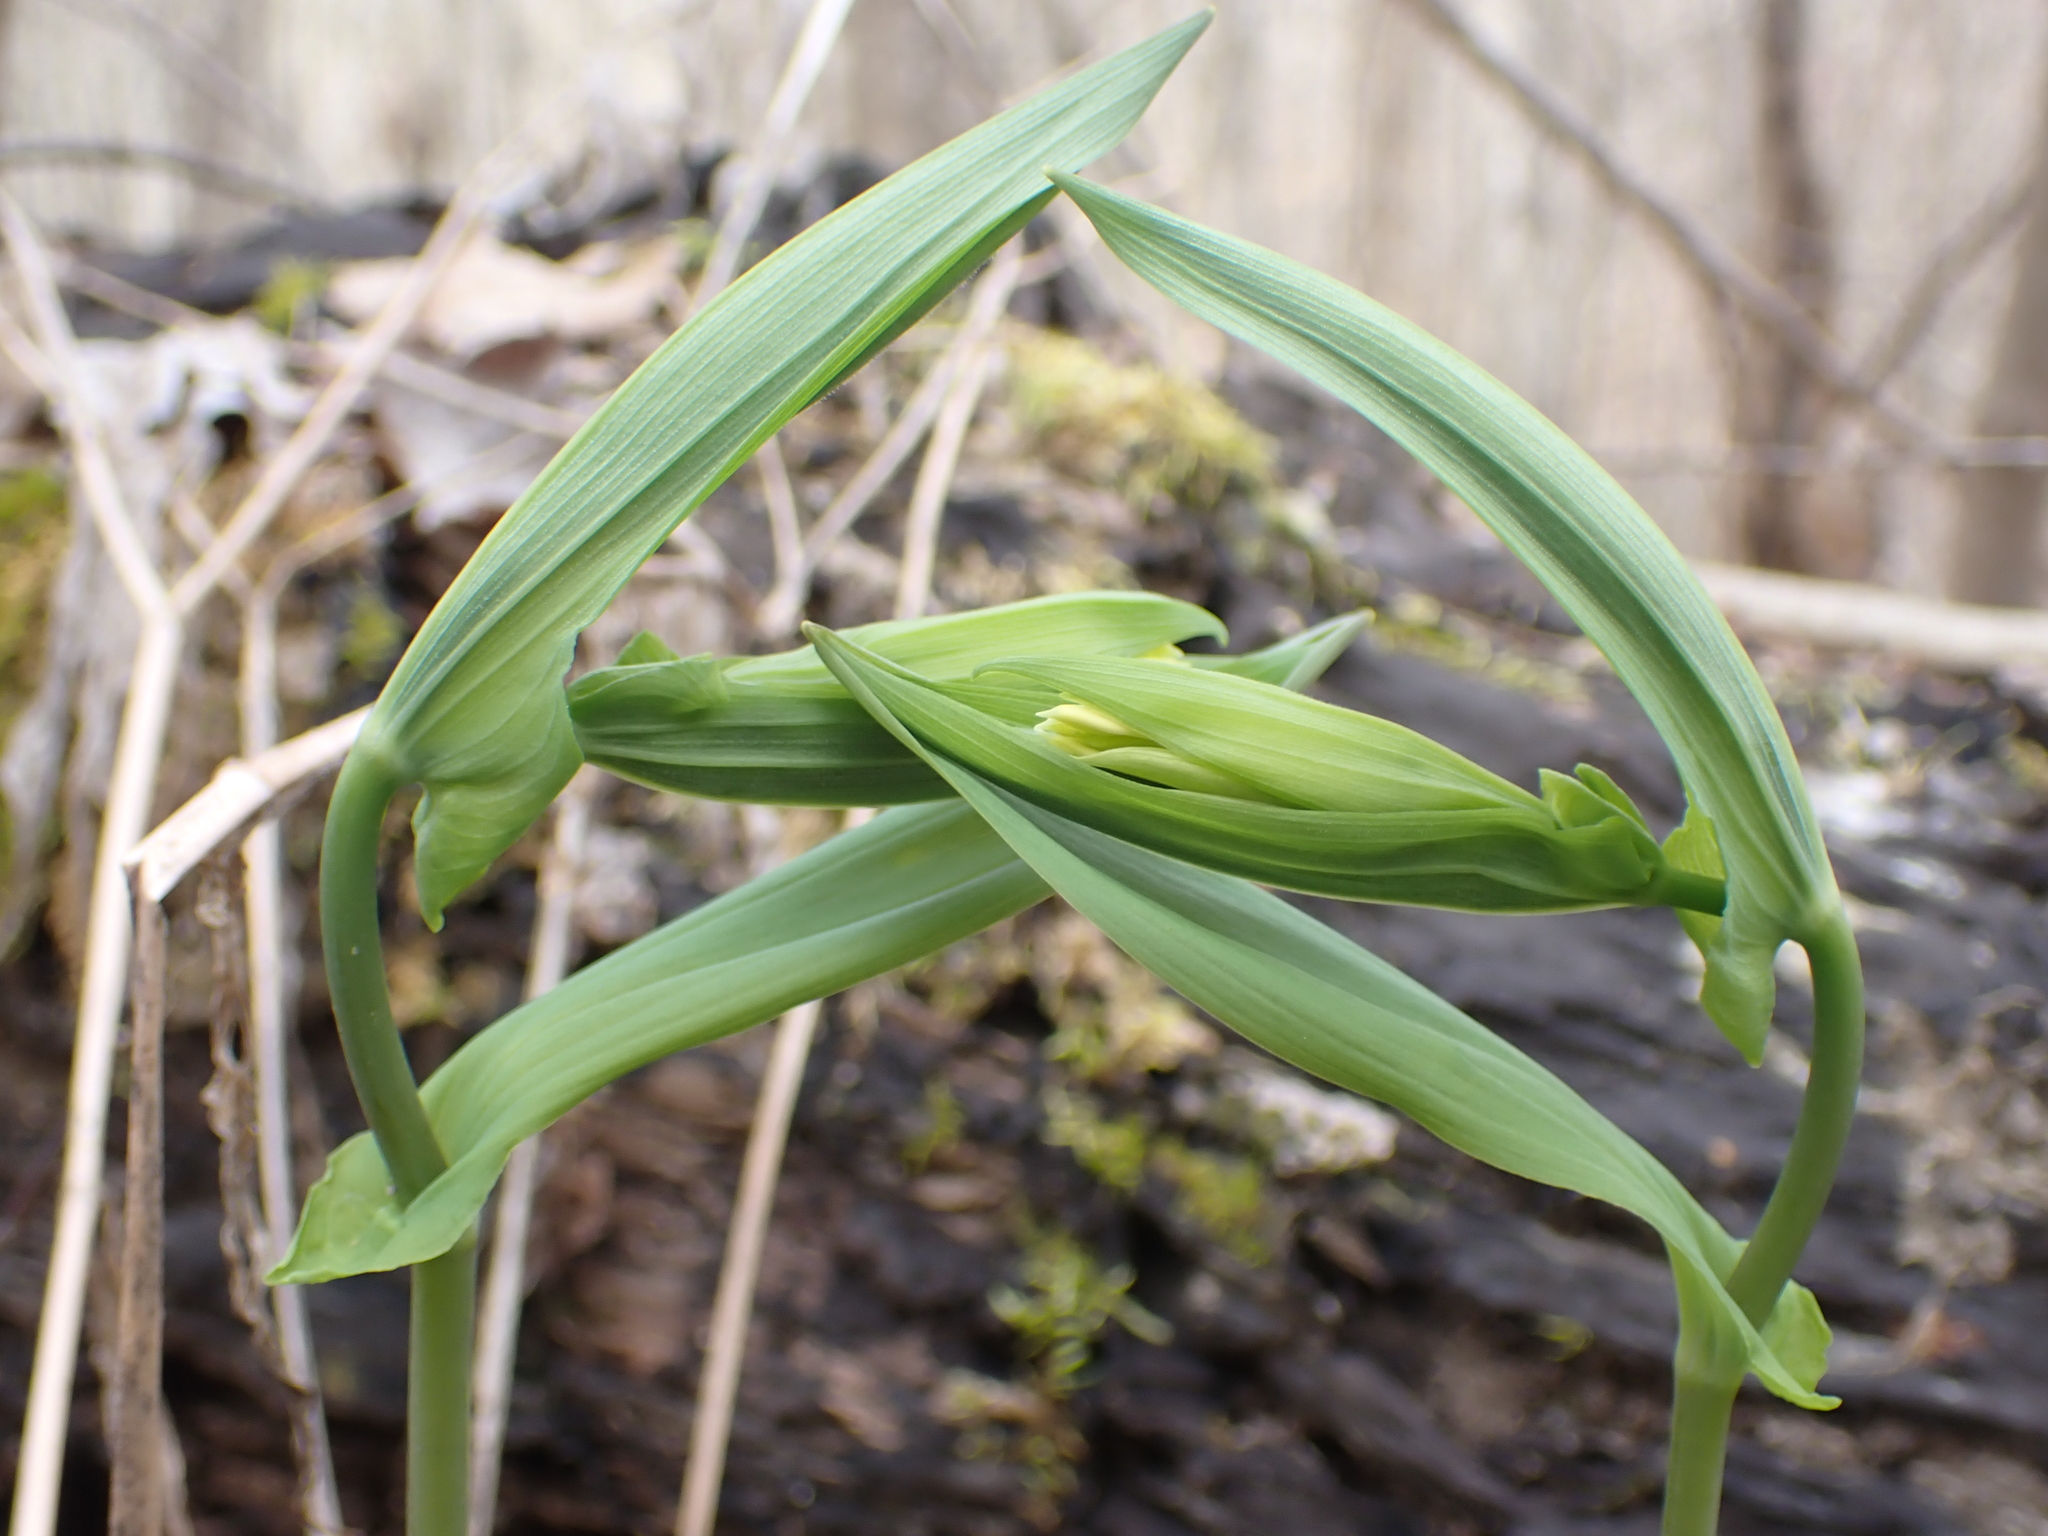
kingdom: Plantae
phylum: Tracheophyta
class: Liliopsida
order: Liliales
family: Colchicaceae
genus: Uvularia
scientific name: Uvularia grandiflora
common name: Bellwort
